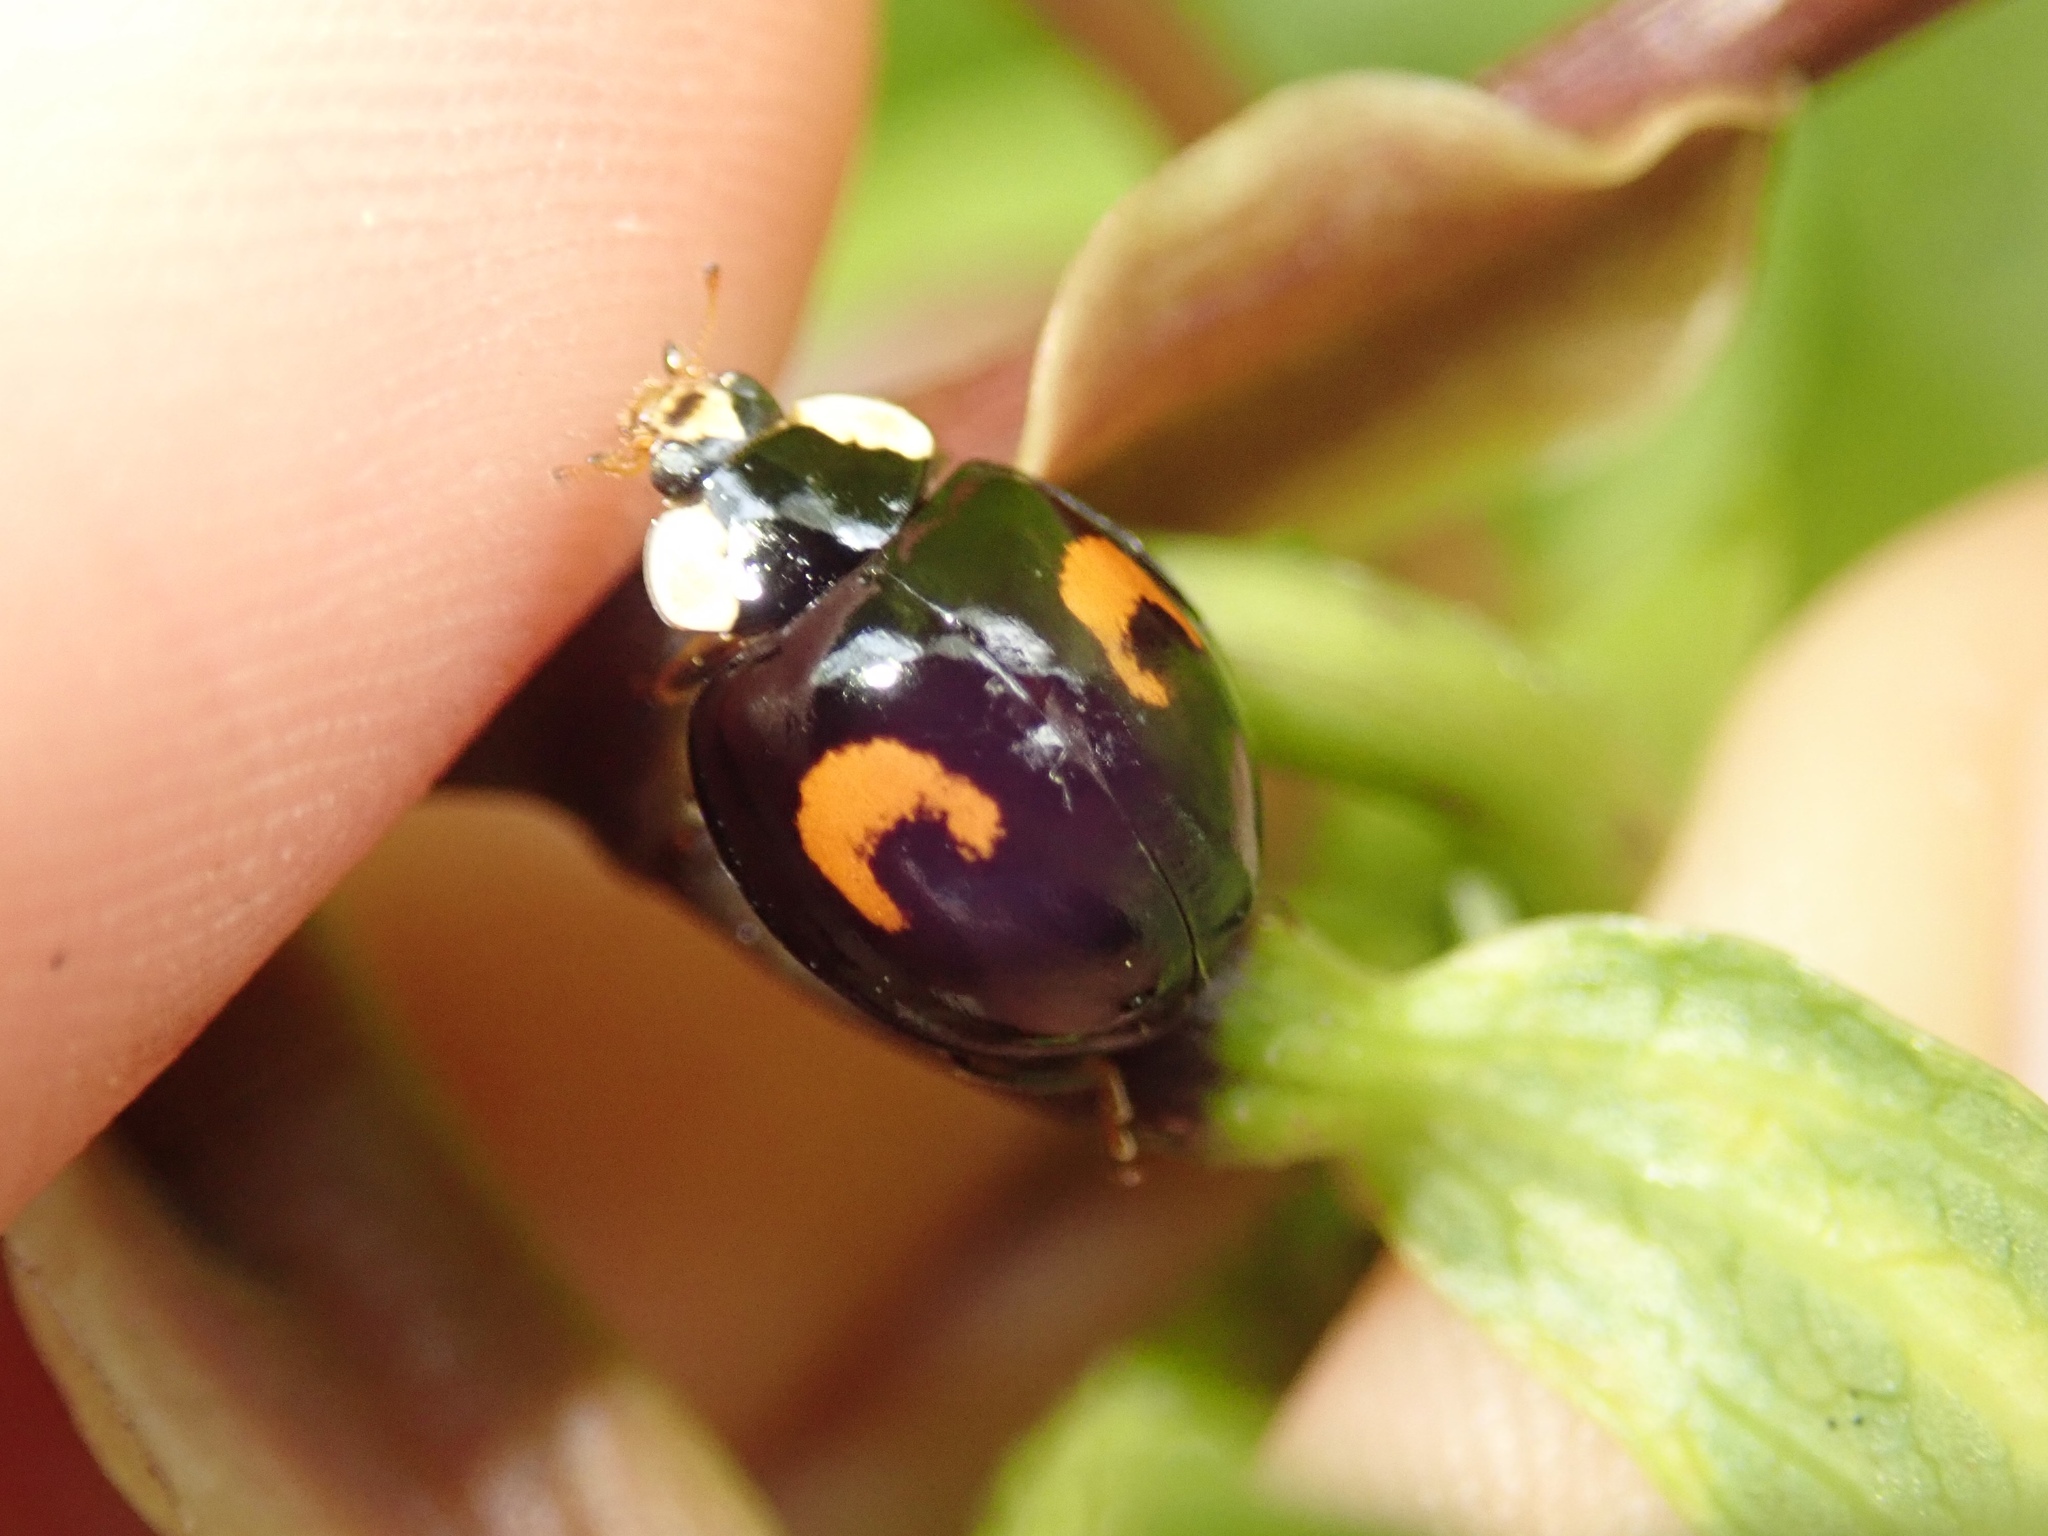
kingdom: Animalia
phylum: Arthropoda
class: Insecta
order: Coleoptera
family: Coccinellidae
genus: Harmonia
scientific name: Harmonia axyridis
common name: Harlequin ladybird
